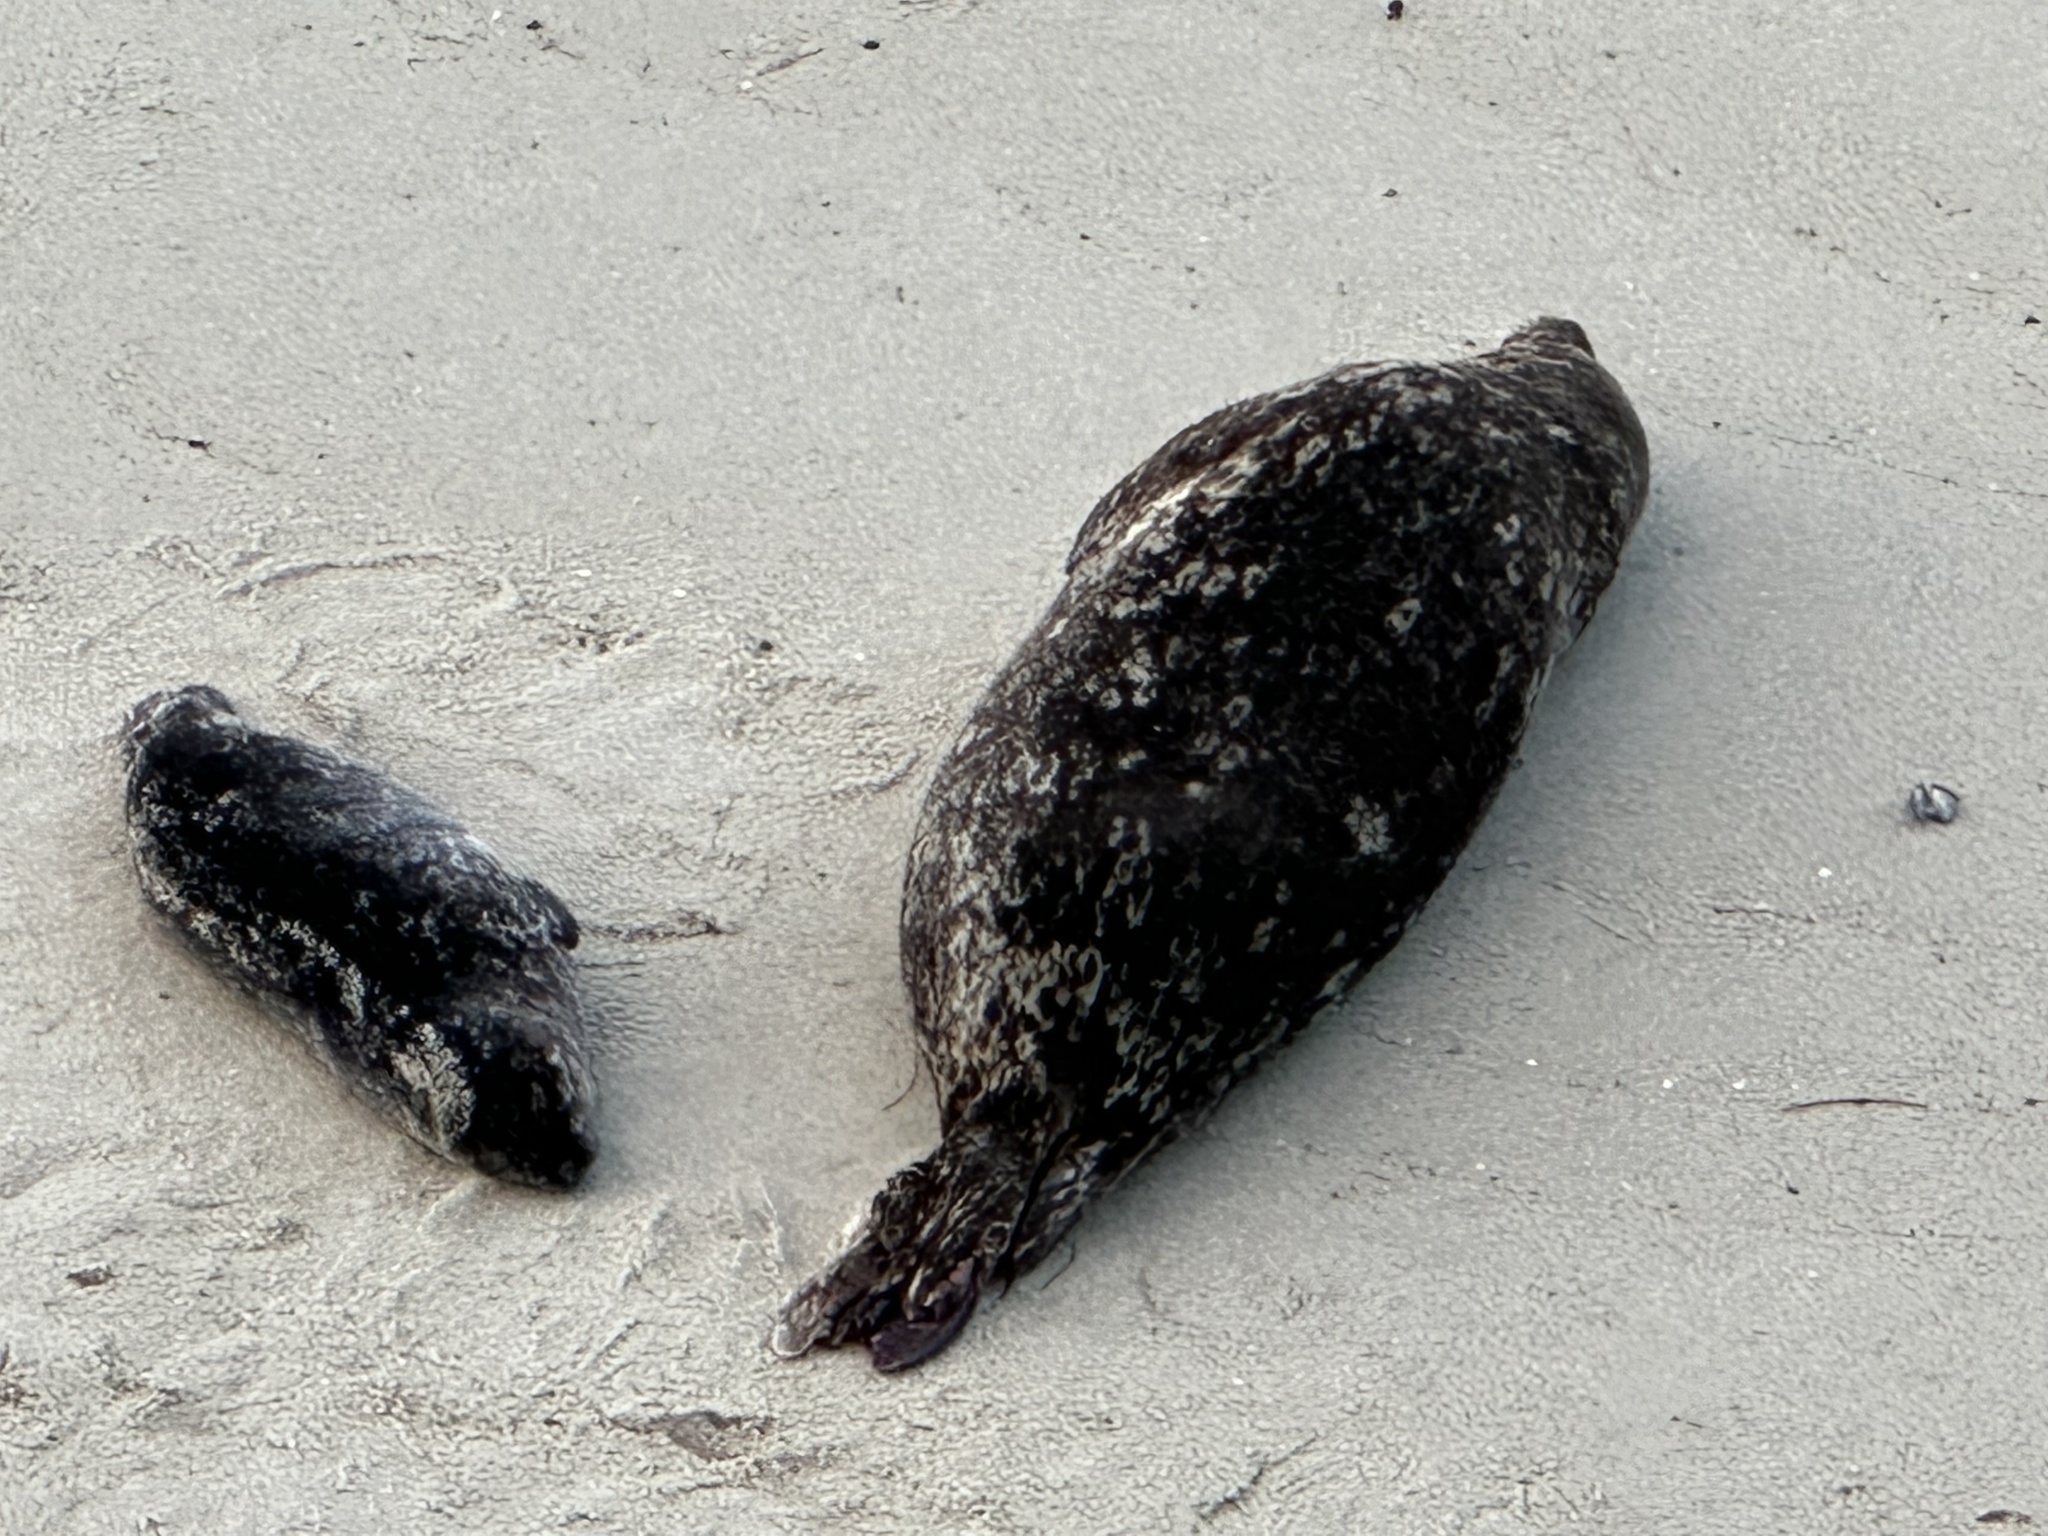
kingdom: Animalia
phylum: Chordata
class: Mammalia
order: Carnivora
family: Phocidae
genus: Phoca
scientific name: Phoca vitulina
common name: Harbor seal
